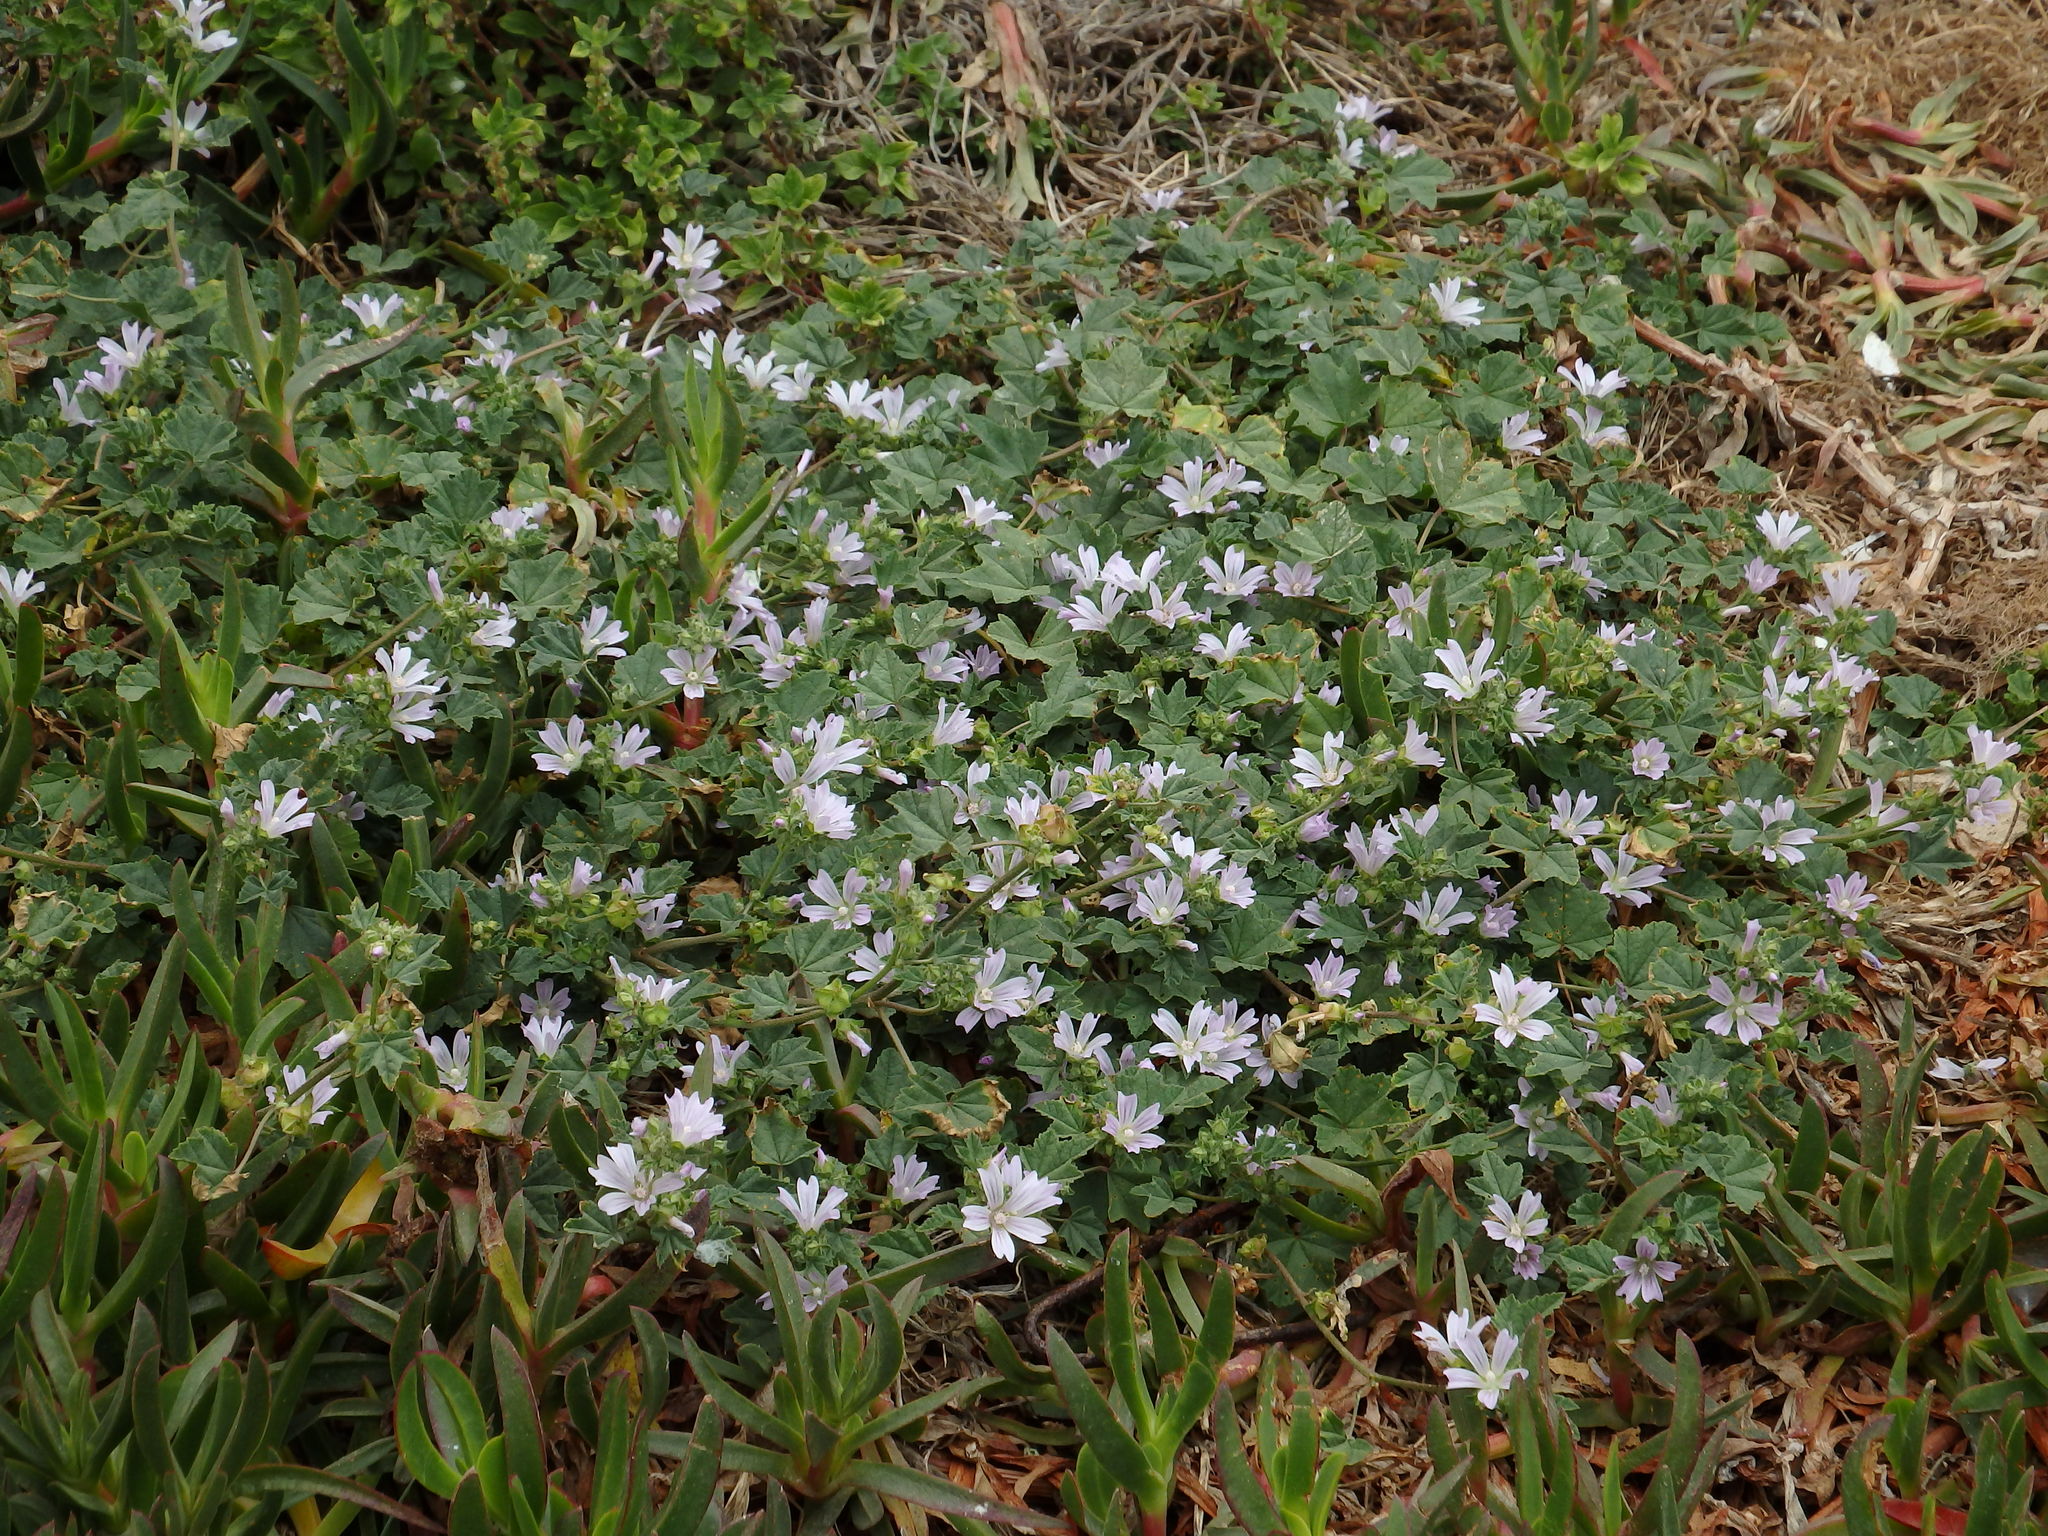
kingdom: Plantae
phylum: Tracheophyta
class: Magnoliopsida
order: Malvales
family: Malvaceae
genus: Malva
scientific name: Malva multiflora
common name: Cheeseweed
